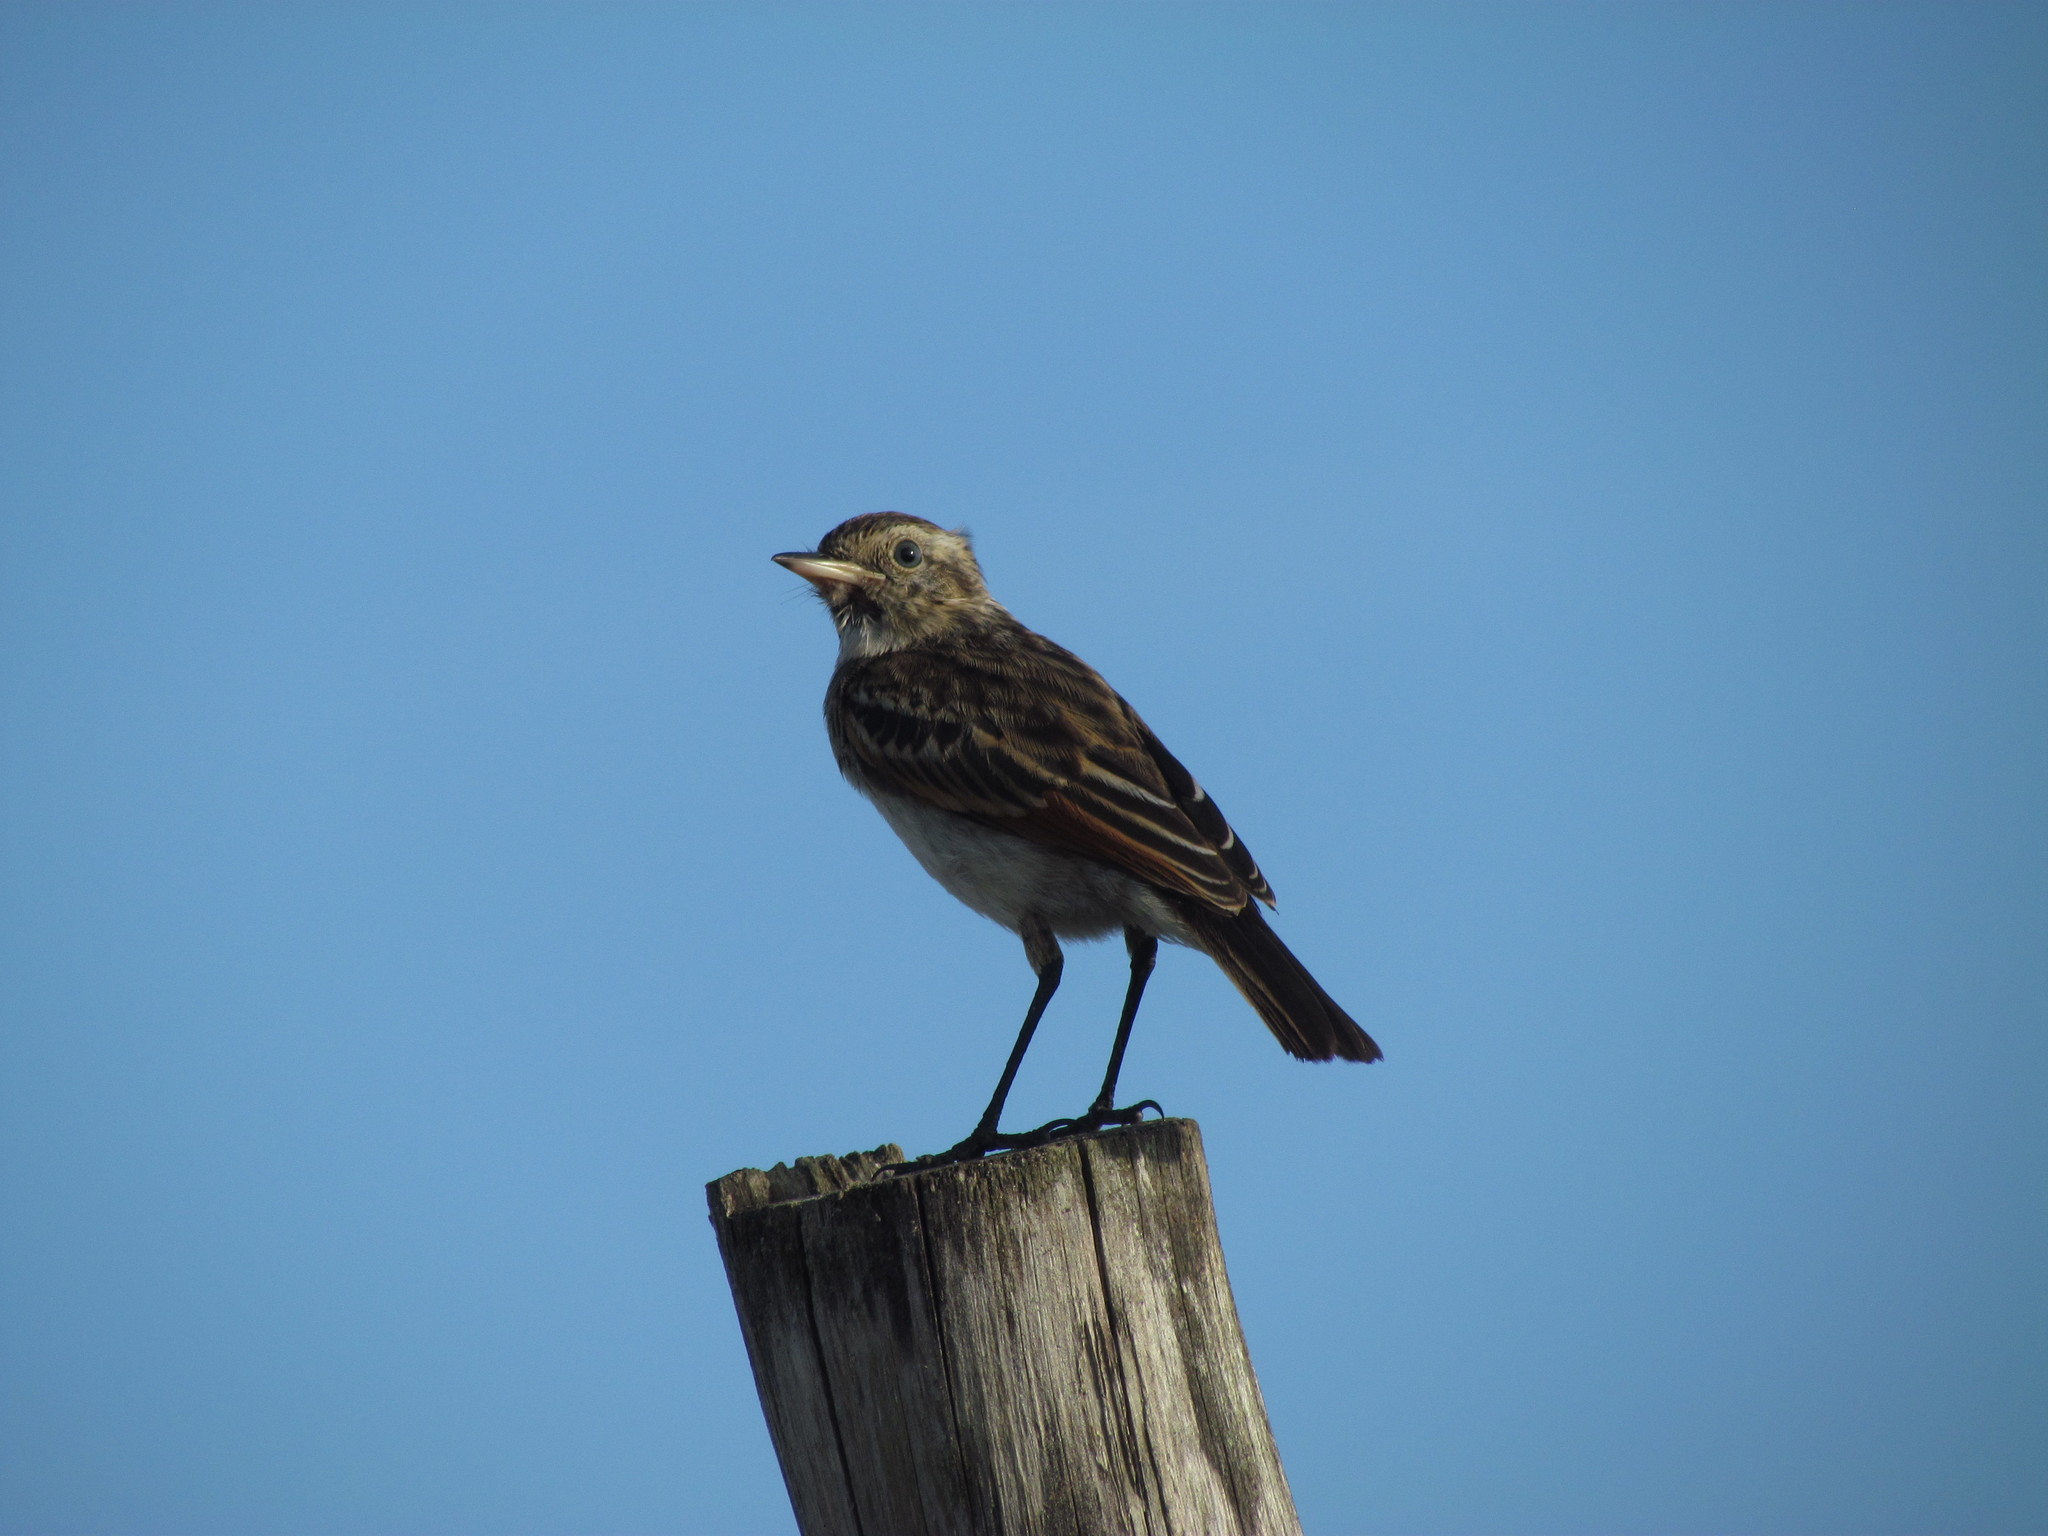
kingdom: Animalia
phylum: Chordata
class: Aves
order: Passeriformes
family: Tyrannidae
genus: Hymenops
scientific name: Hymenops perspicillatus
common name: Spectacled tyrant
